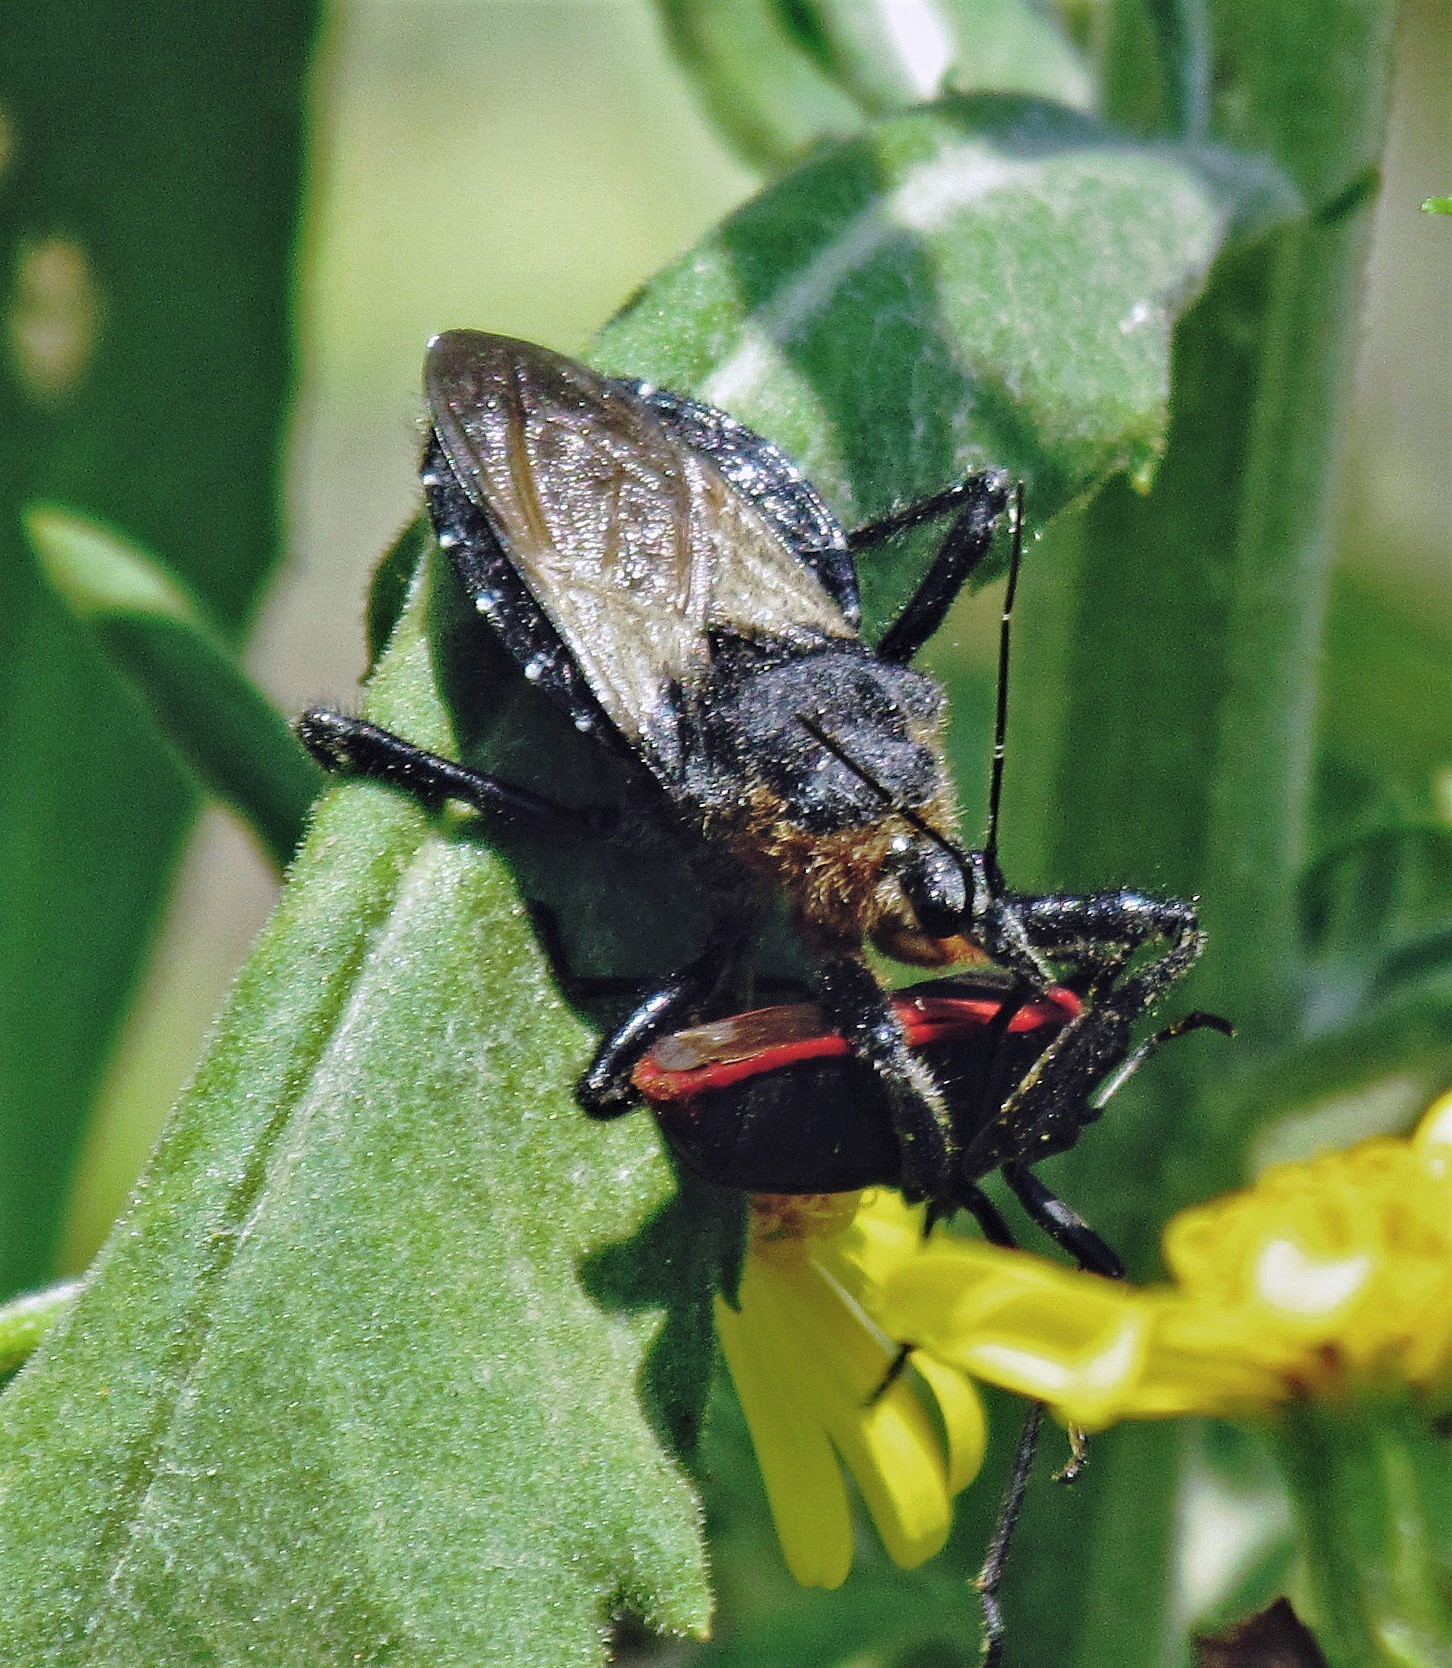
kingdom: Animalia
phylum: Arthropoda
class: Insecta
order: Hemiptera
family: Reduviidae
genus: Apiomerus
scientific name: Apiomerus lanipes
